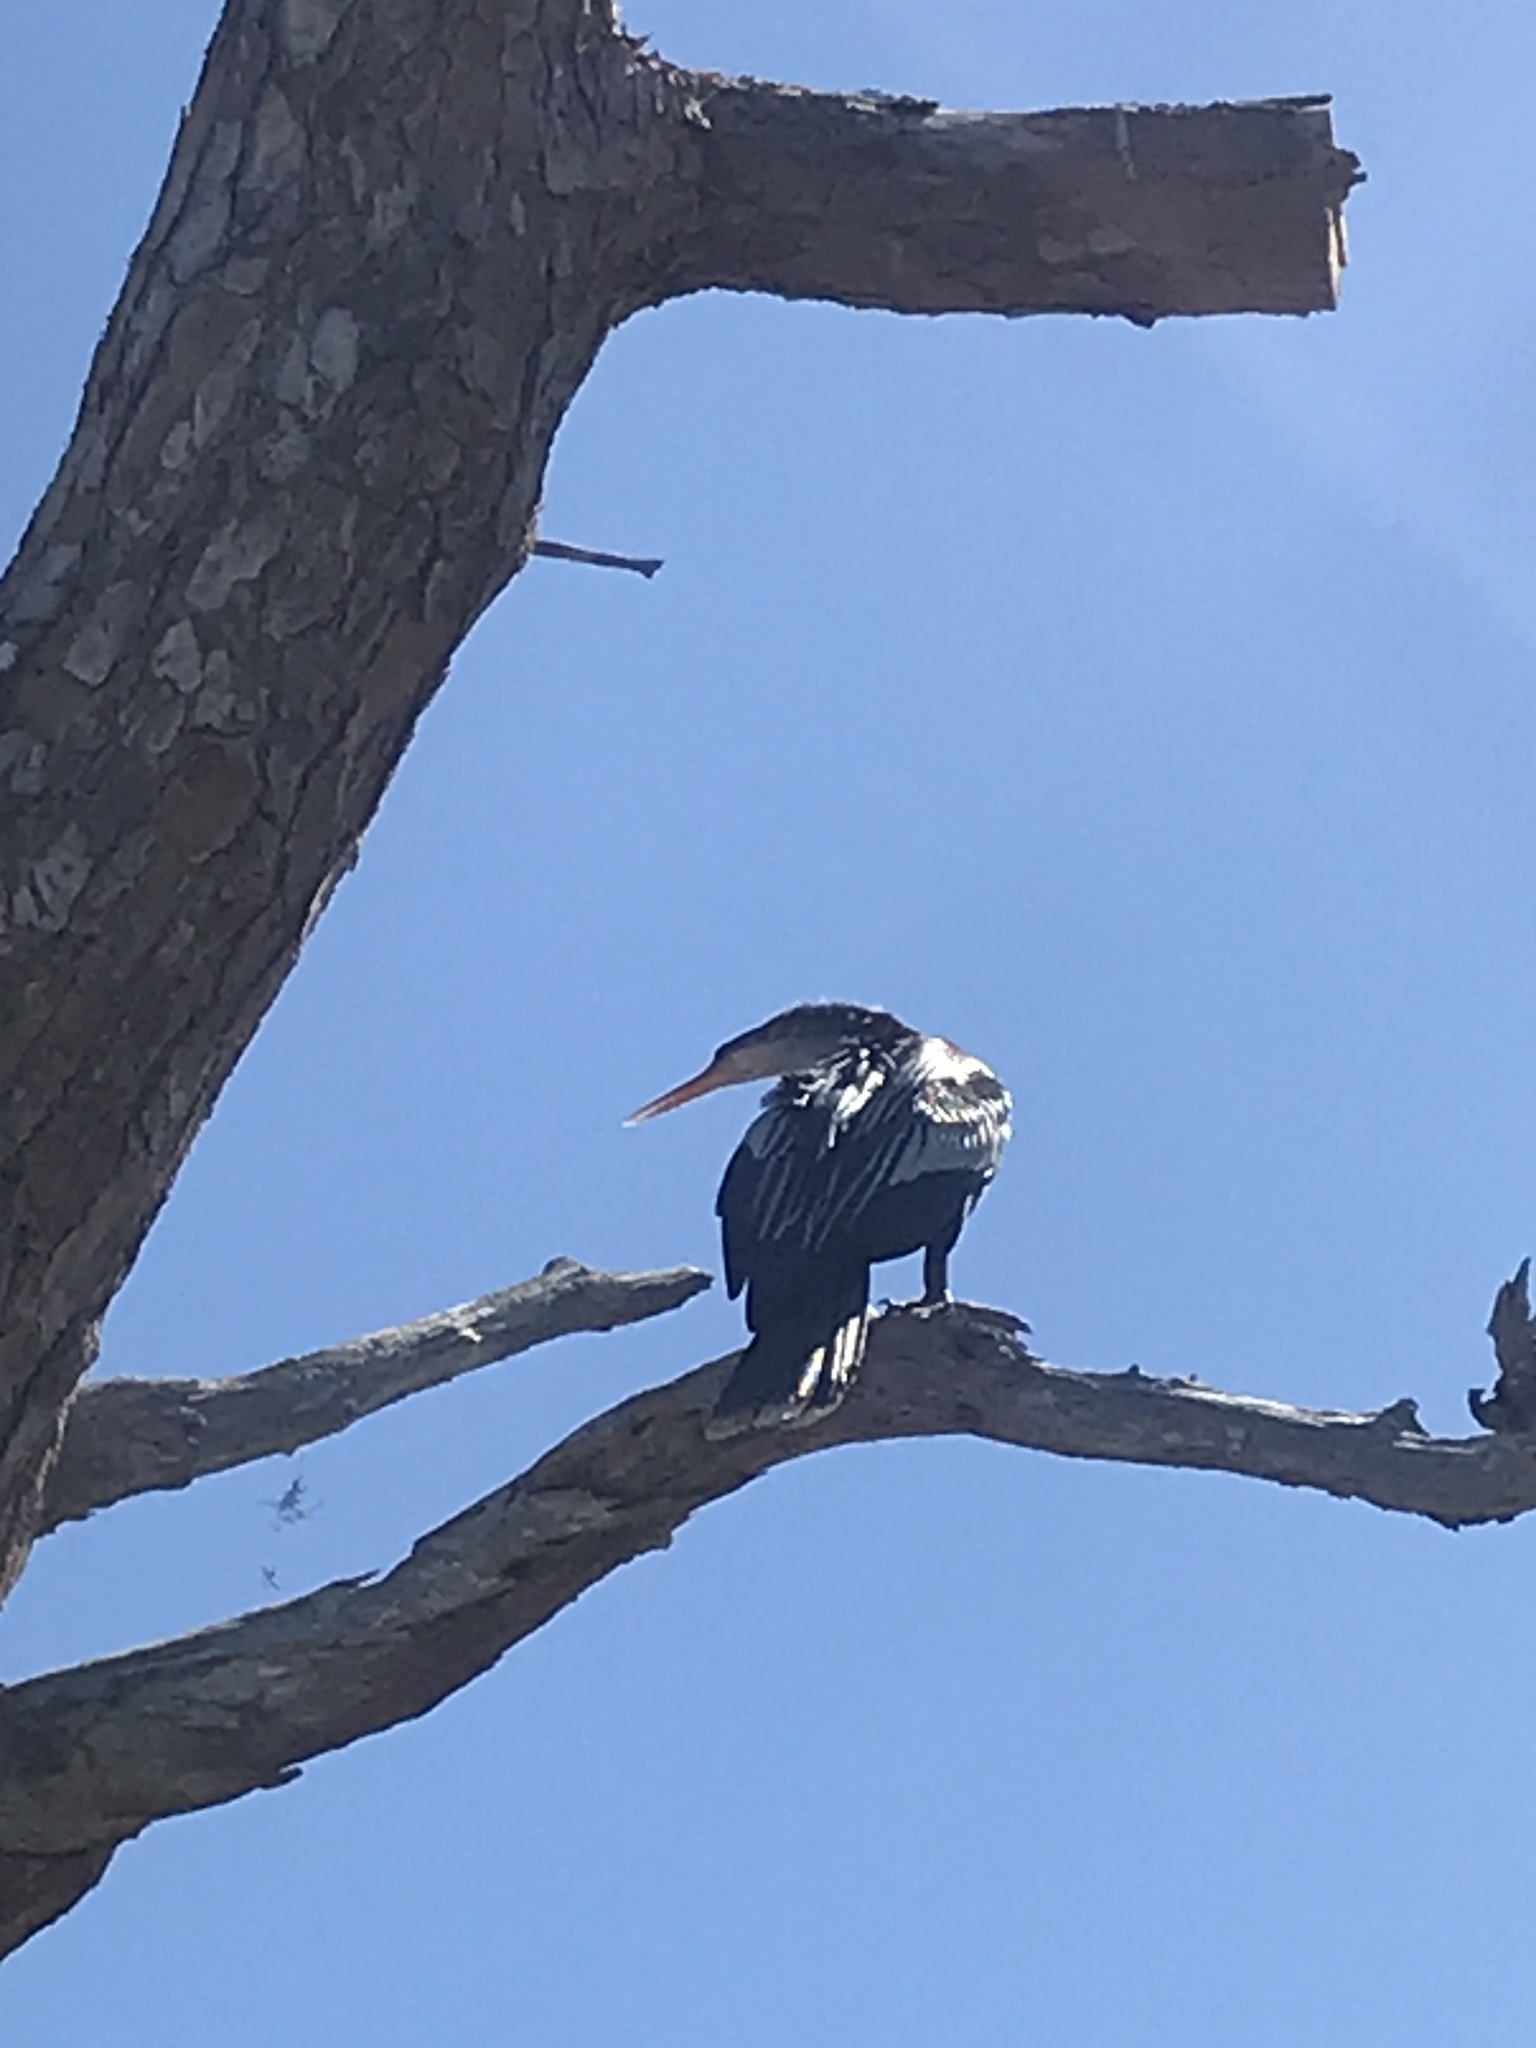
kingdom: Animalia
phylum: Chordata
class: Aves
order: Suliformes
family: Anhingidae
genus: Anhinga
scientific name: Anhinga anhinga
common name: Anhinga
